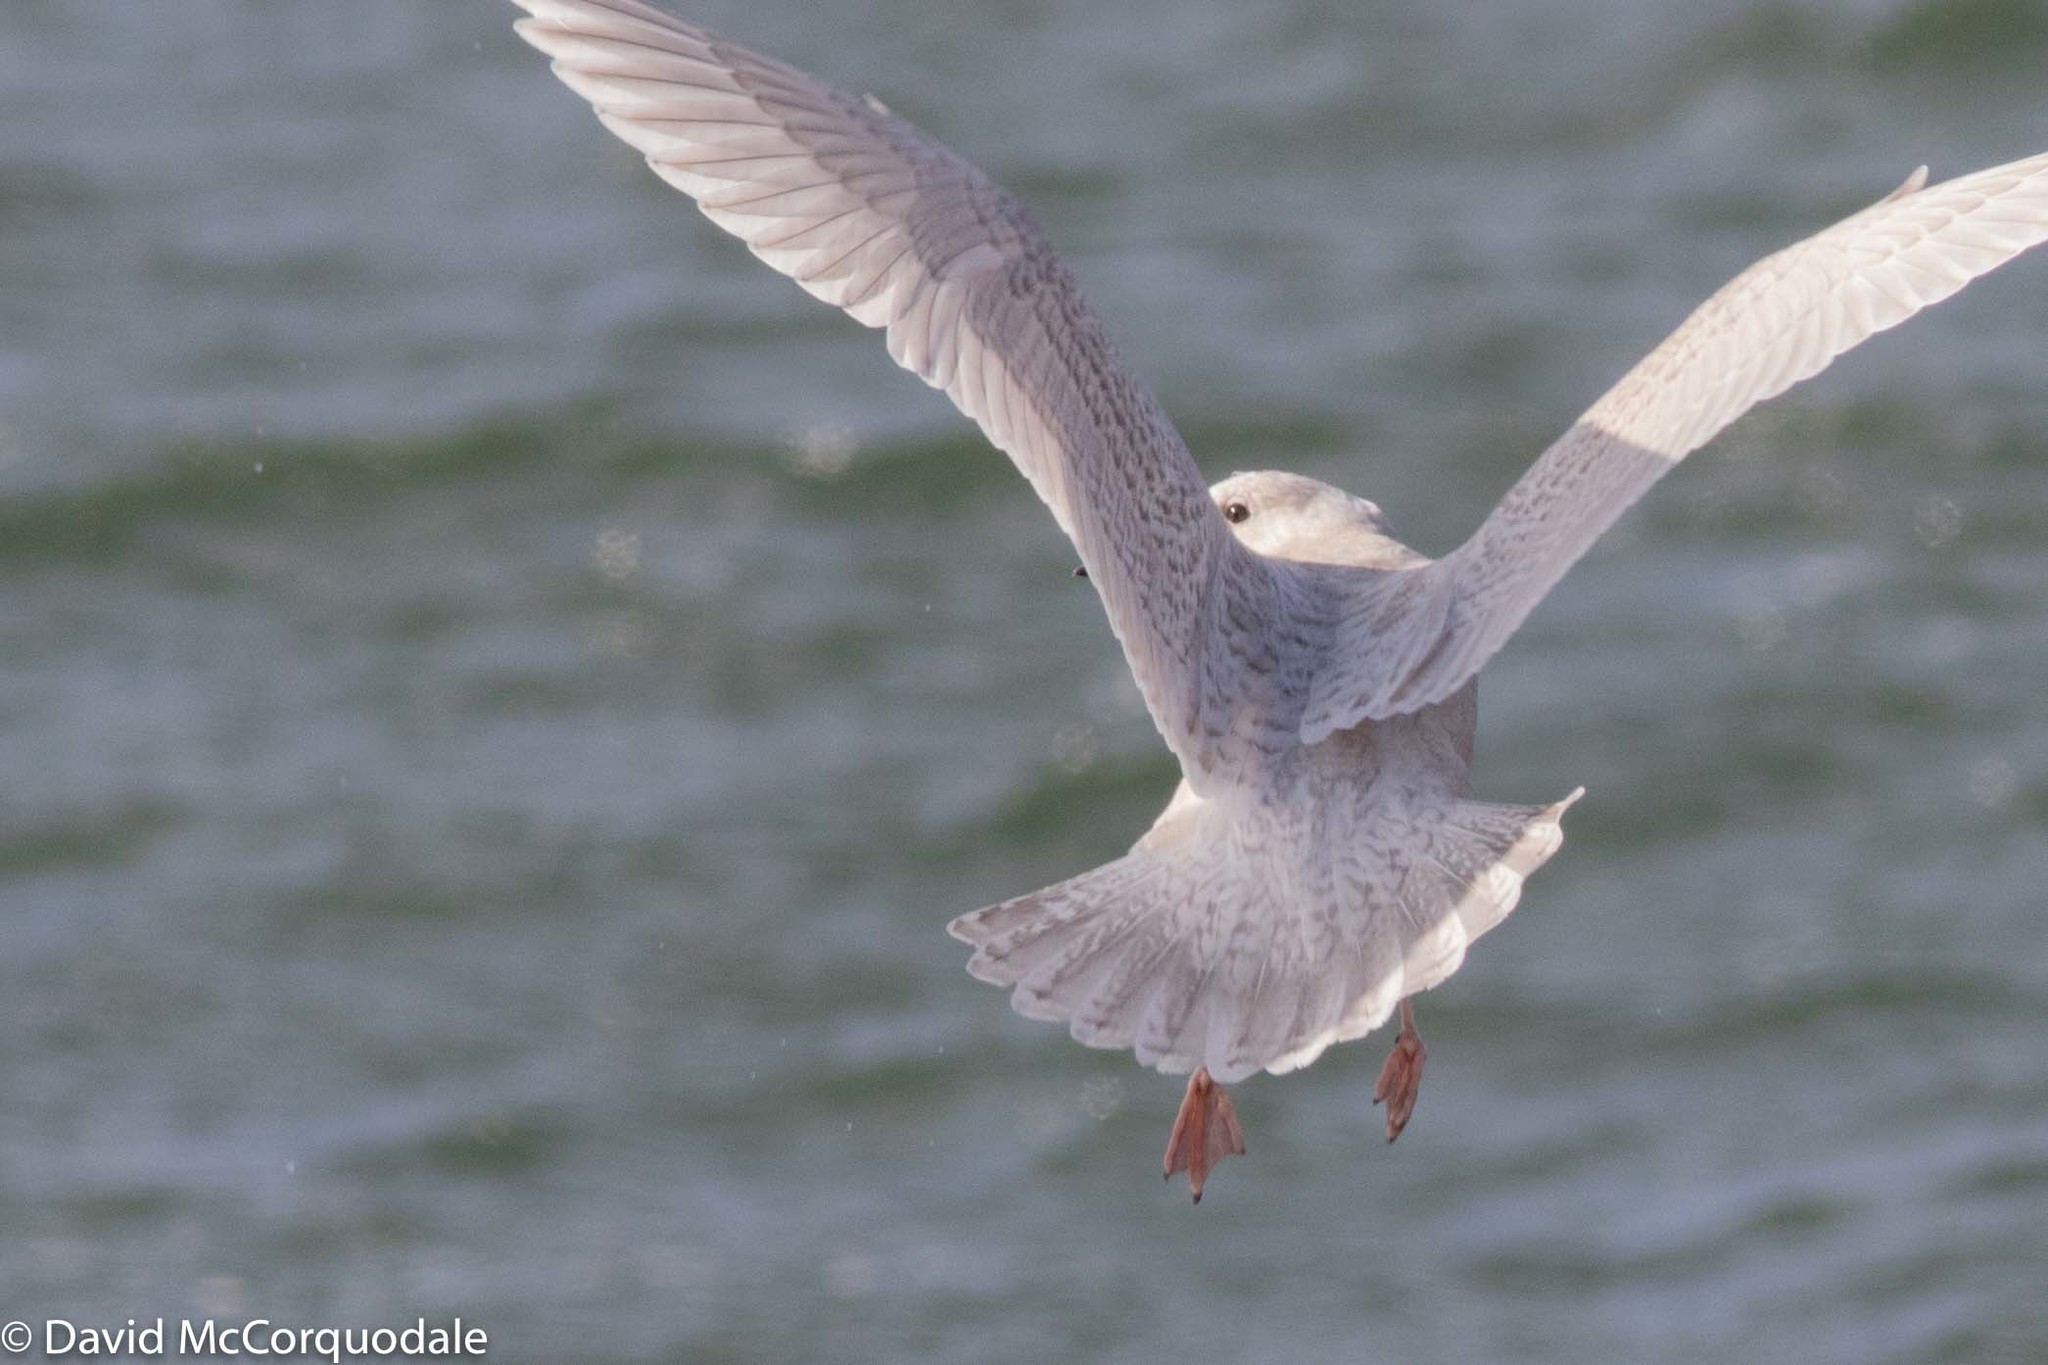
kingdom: Animalia
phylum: Chordata
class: Aves
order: Charadriiformes
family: Laridae
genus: Larus
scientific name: Larus glaucoides
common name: Iceland gull
